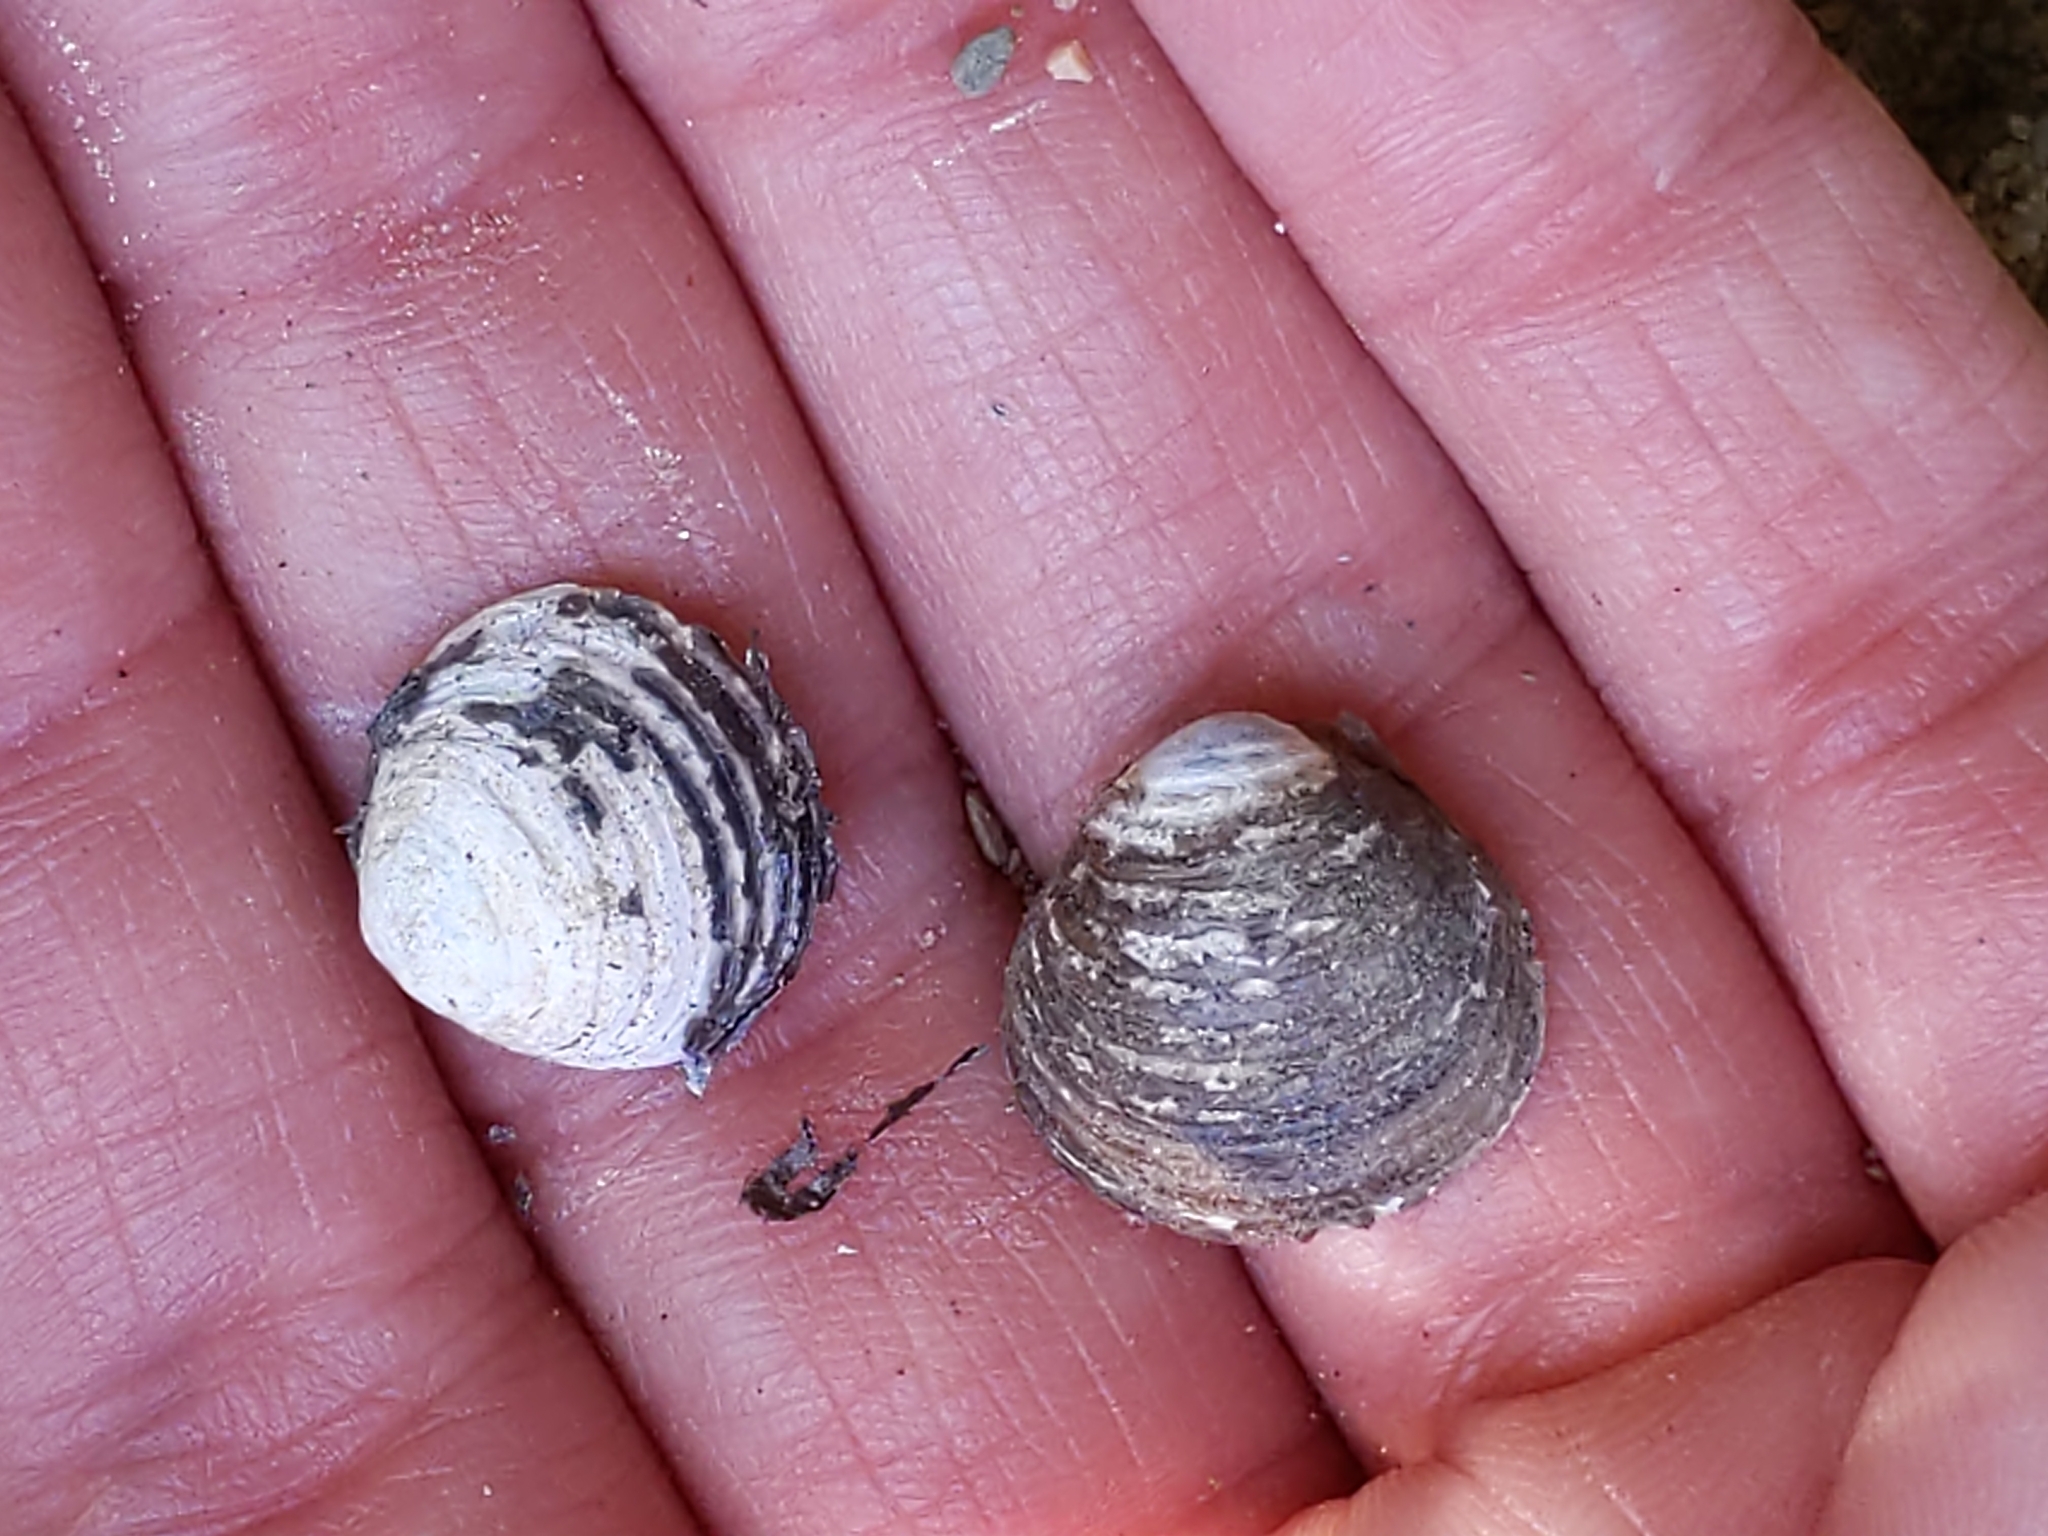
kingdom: Animalia
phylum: Mollusca
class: Bivalvia
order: Venerida
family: Cyrenidae
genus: Corbicula
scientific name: Corbicula fluminea
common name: Asian clam
